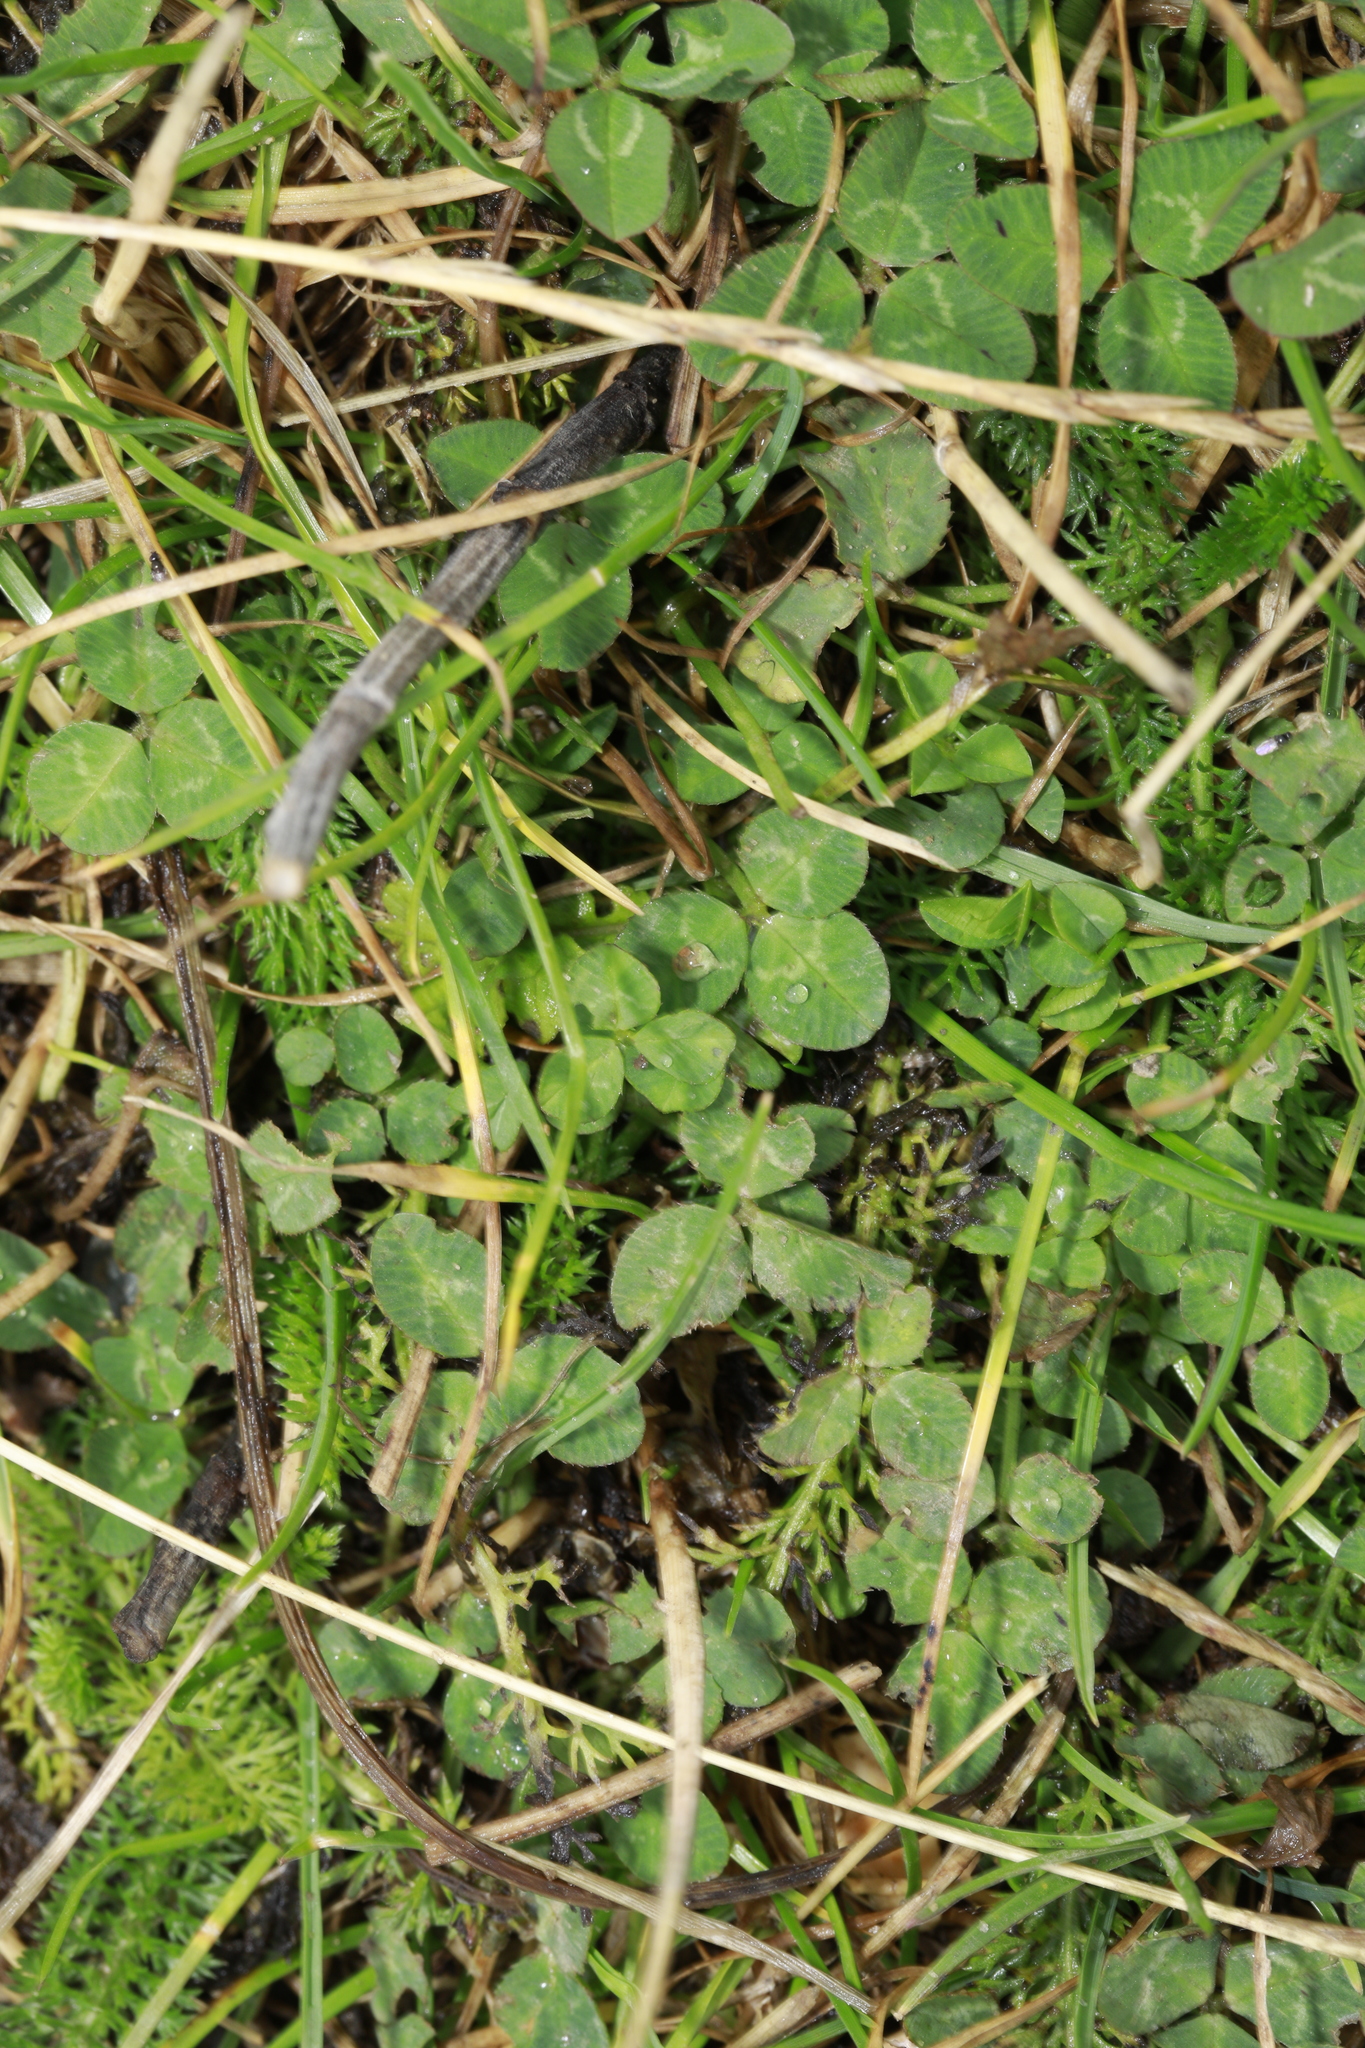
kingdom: Plantae
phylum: Tracheophyta
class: Magnoliopsida
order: Fabales
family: Fabaceae
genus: Trifolium
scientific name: Trifolium repens
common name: White clover
